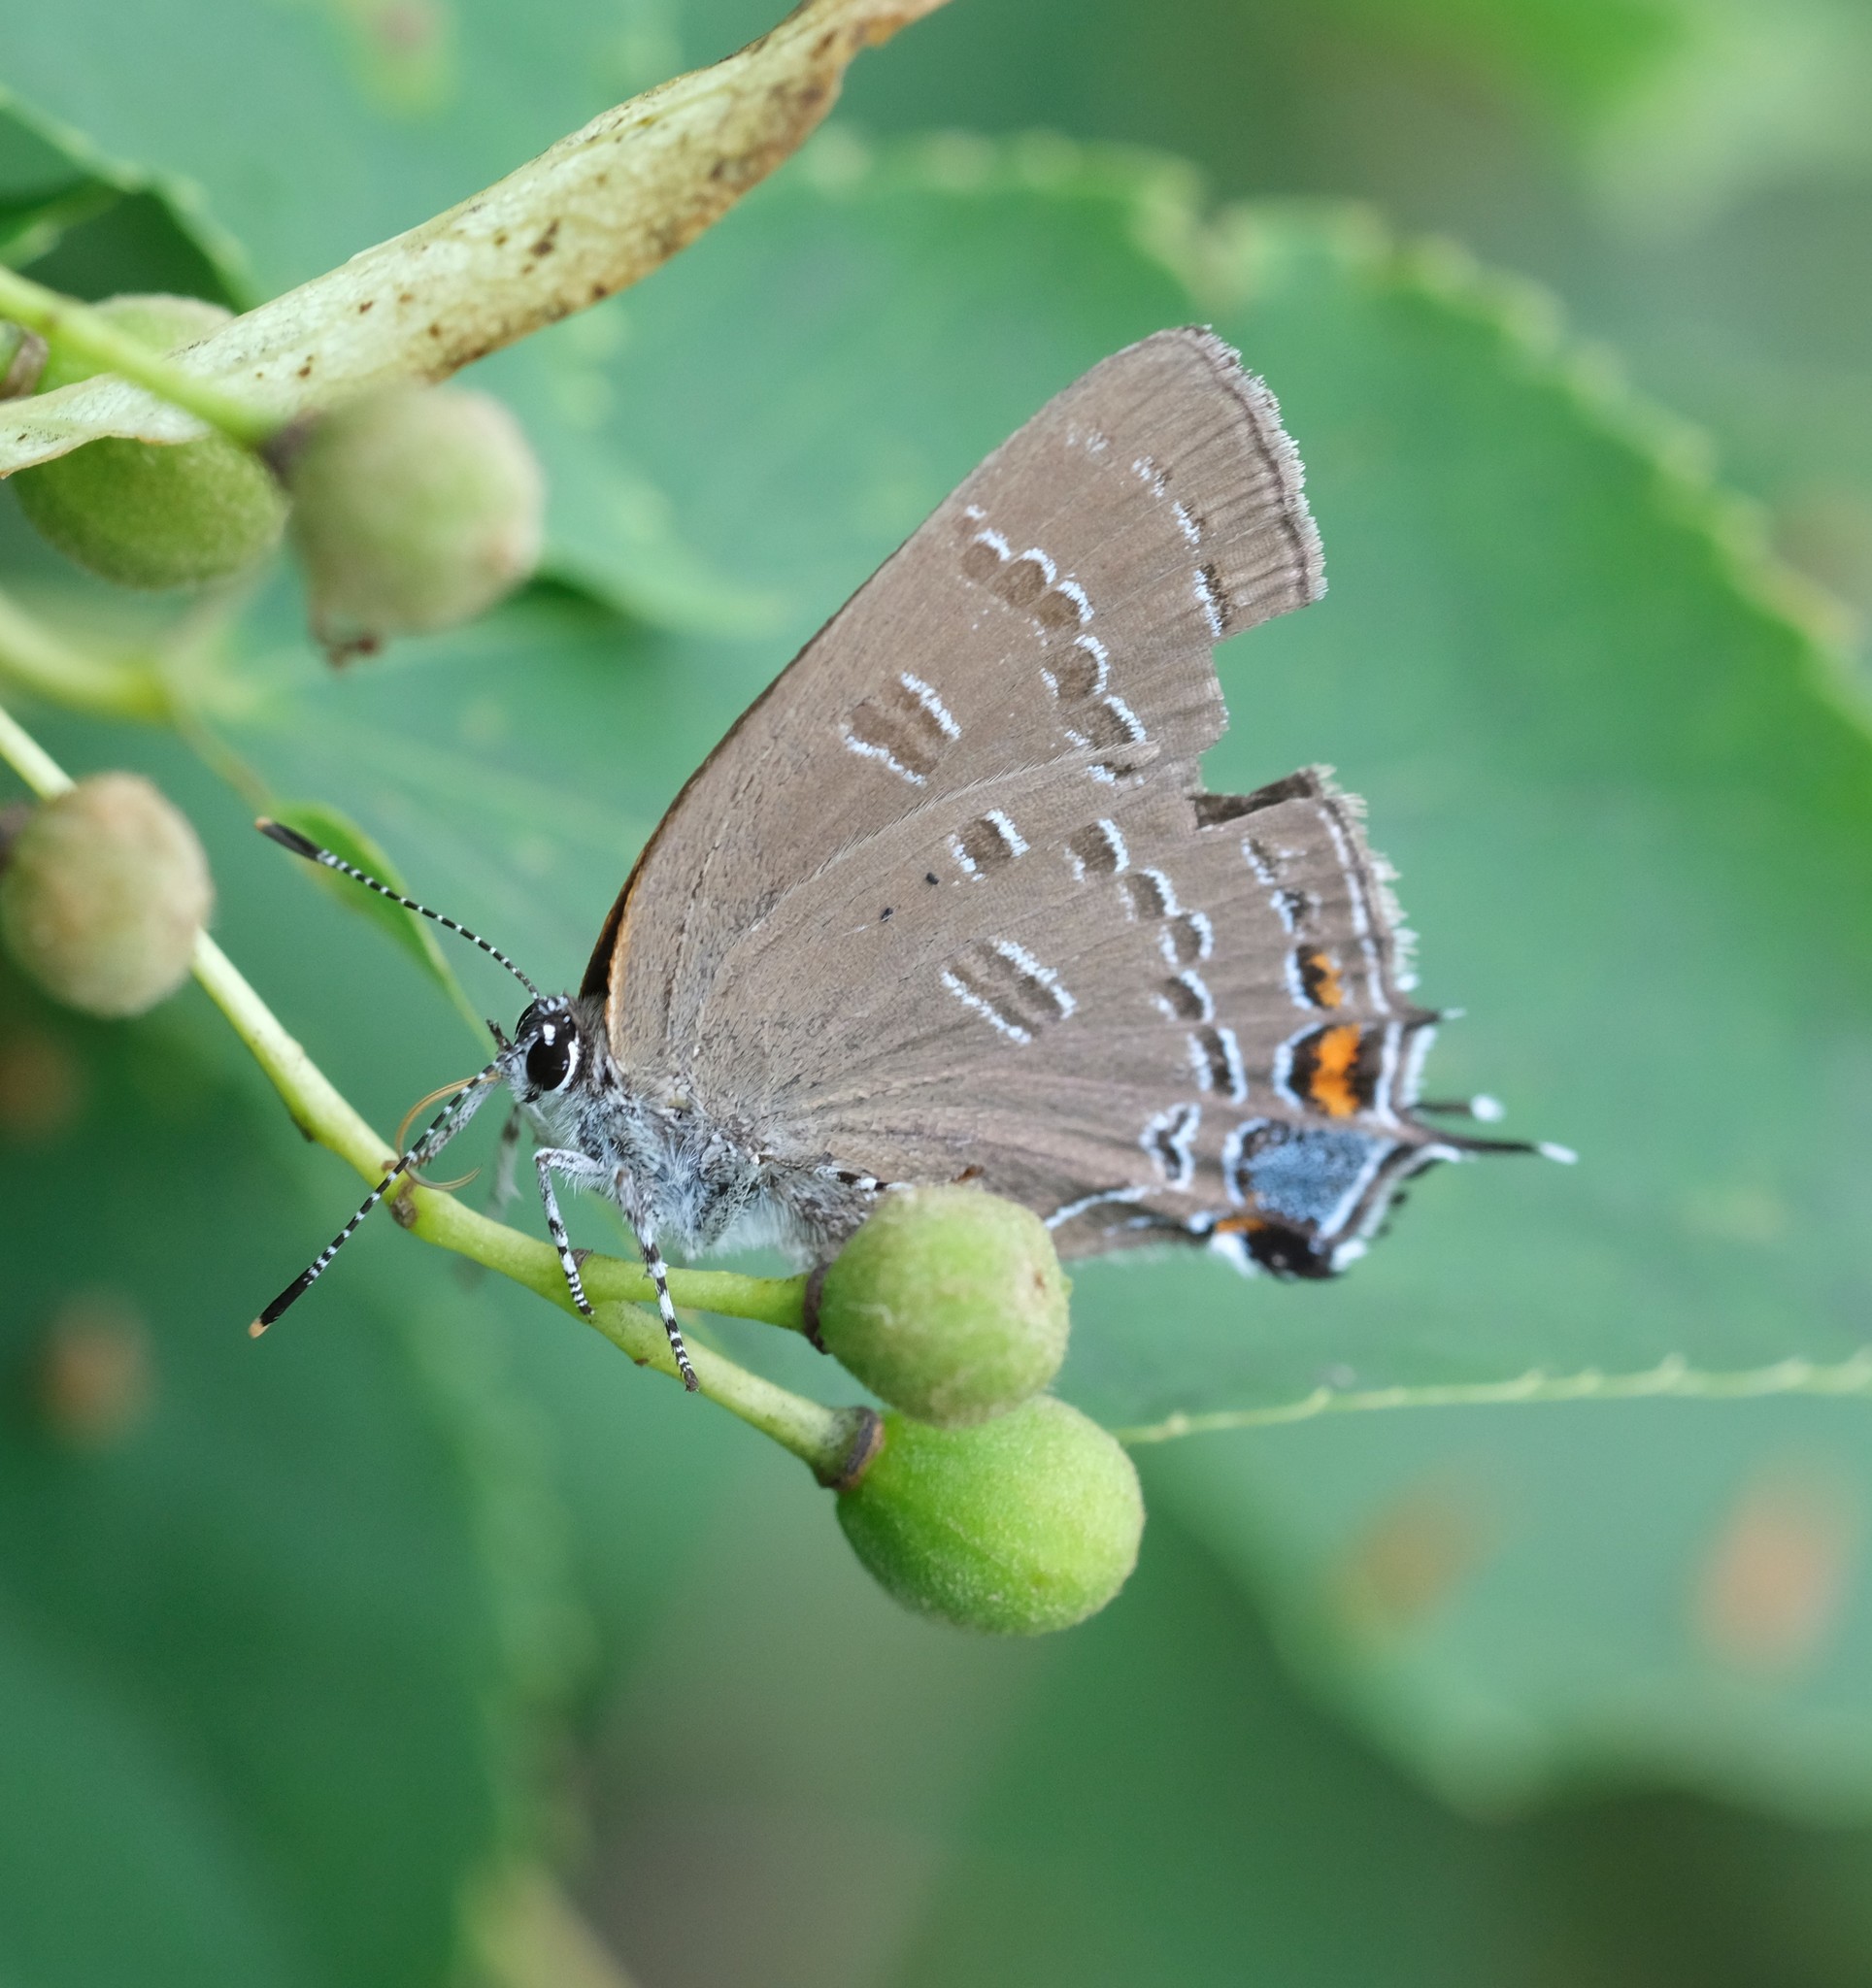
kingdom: Animalia
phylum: Arthropoda
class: Insecta
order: Lepidoptera
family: Lycaenidae
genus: Satyrium
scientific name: Satyrium calanus
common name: Banded hairstreak
